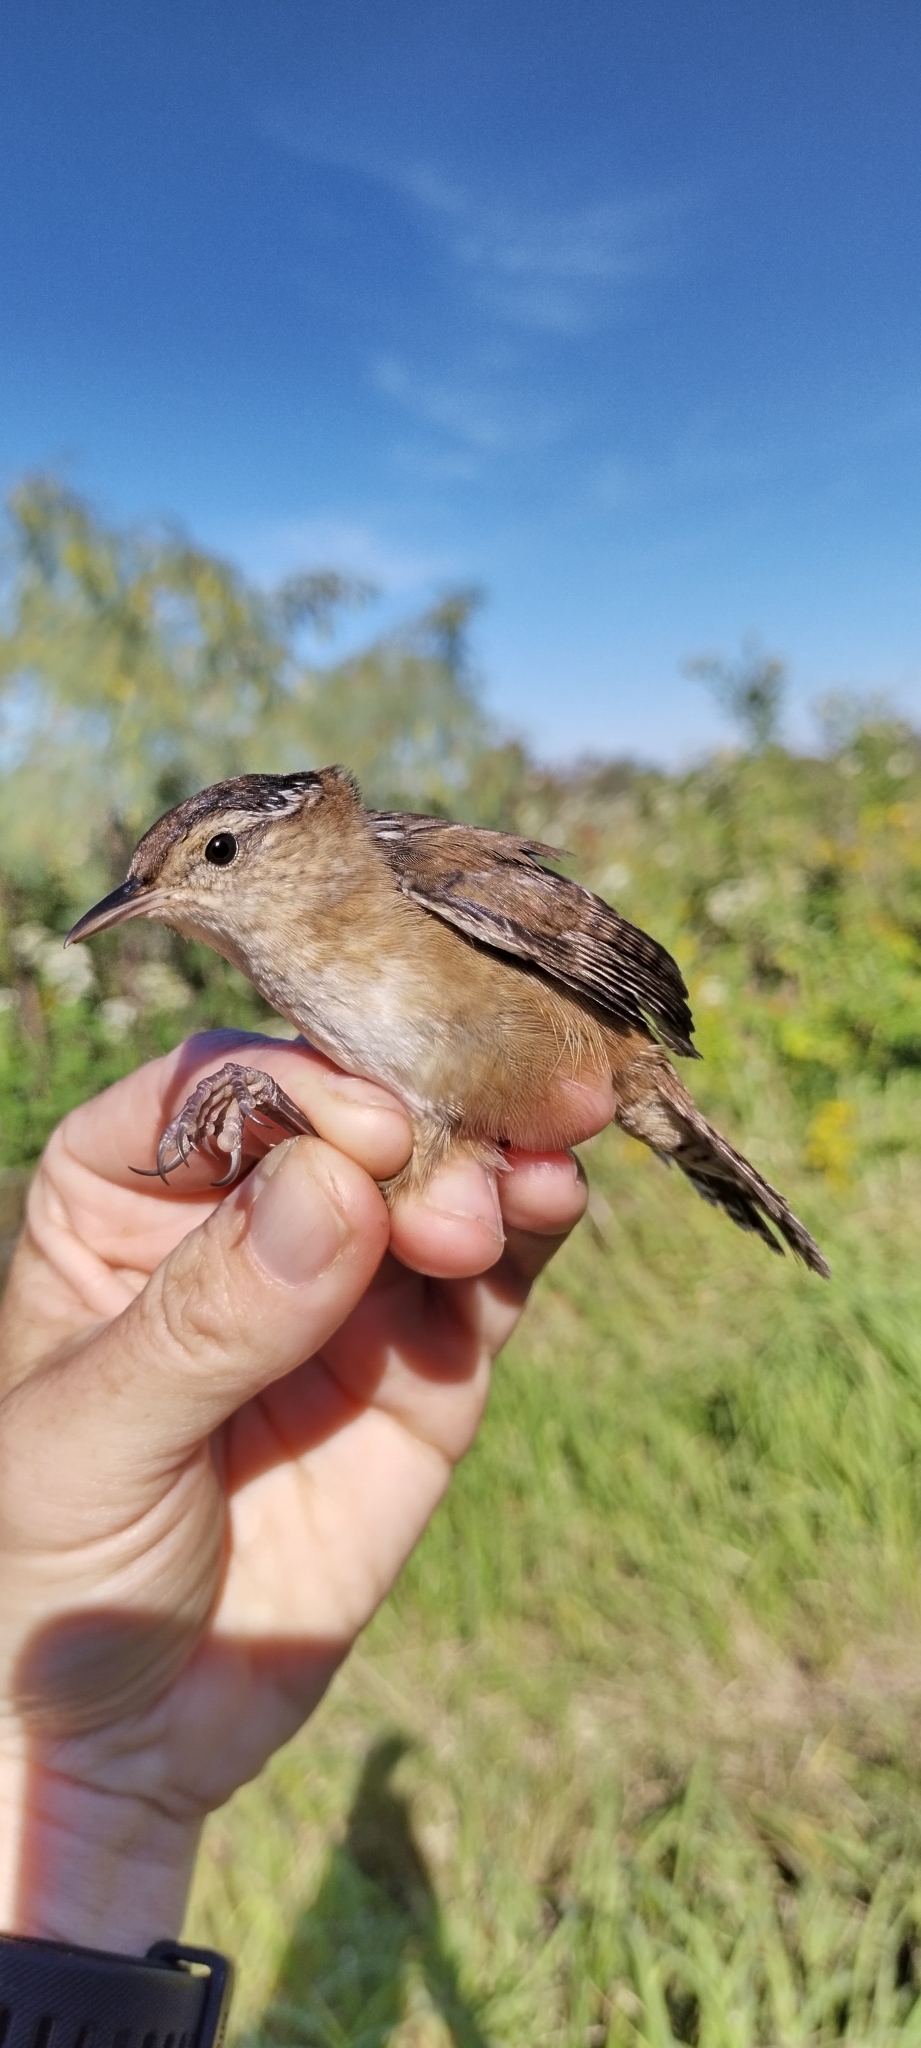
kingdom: Animalia
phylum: Chordata
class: Aves
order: Passeriformes
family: Troglodytidae
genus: Cistothorus
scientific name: Cistothorus palustris
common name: Marsh wren
